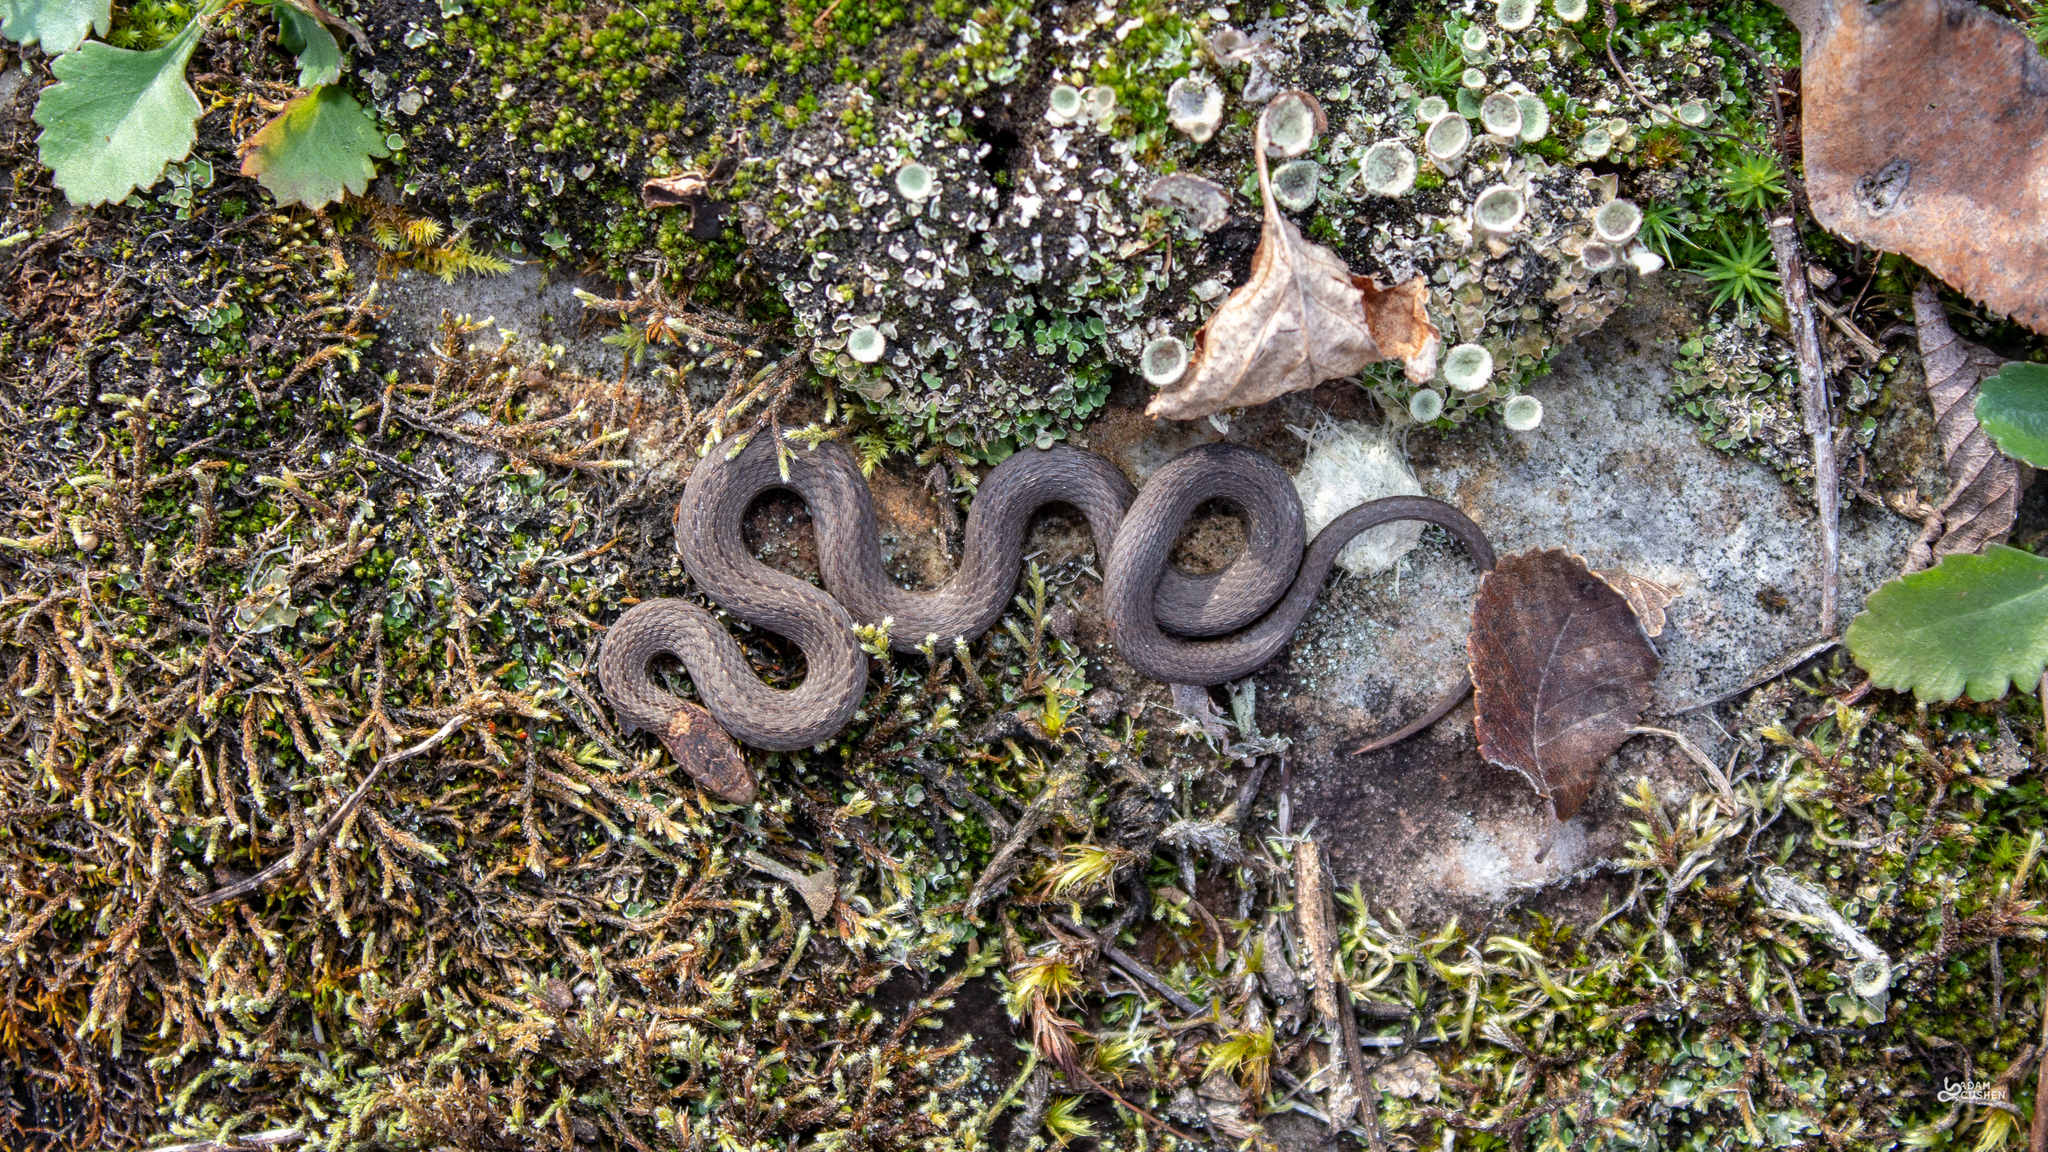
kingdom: Animalia
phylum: Chordata
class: Squamata
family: Colubridae
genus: Storeria
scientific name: Storeria occipitomaculata
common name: Redbelly snake
